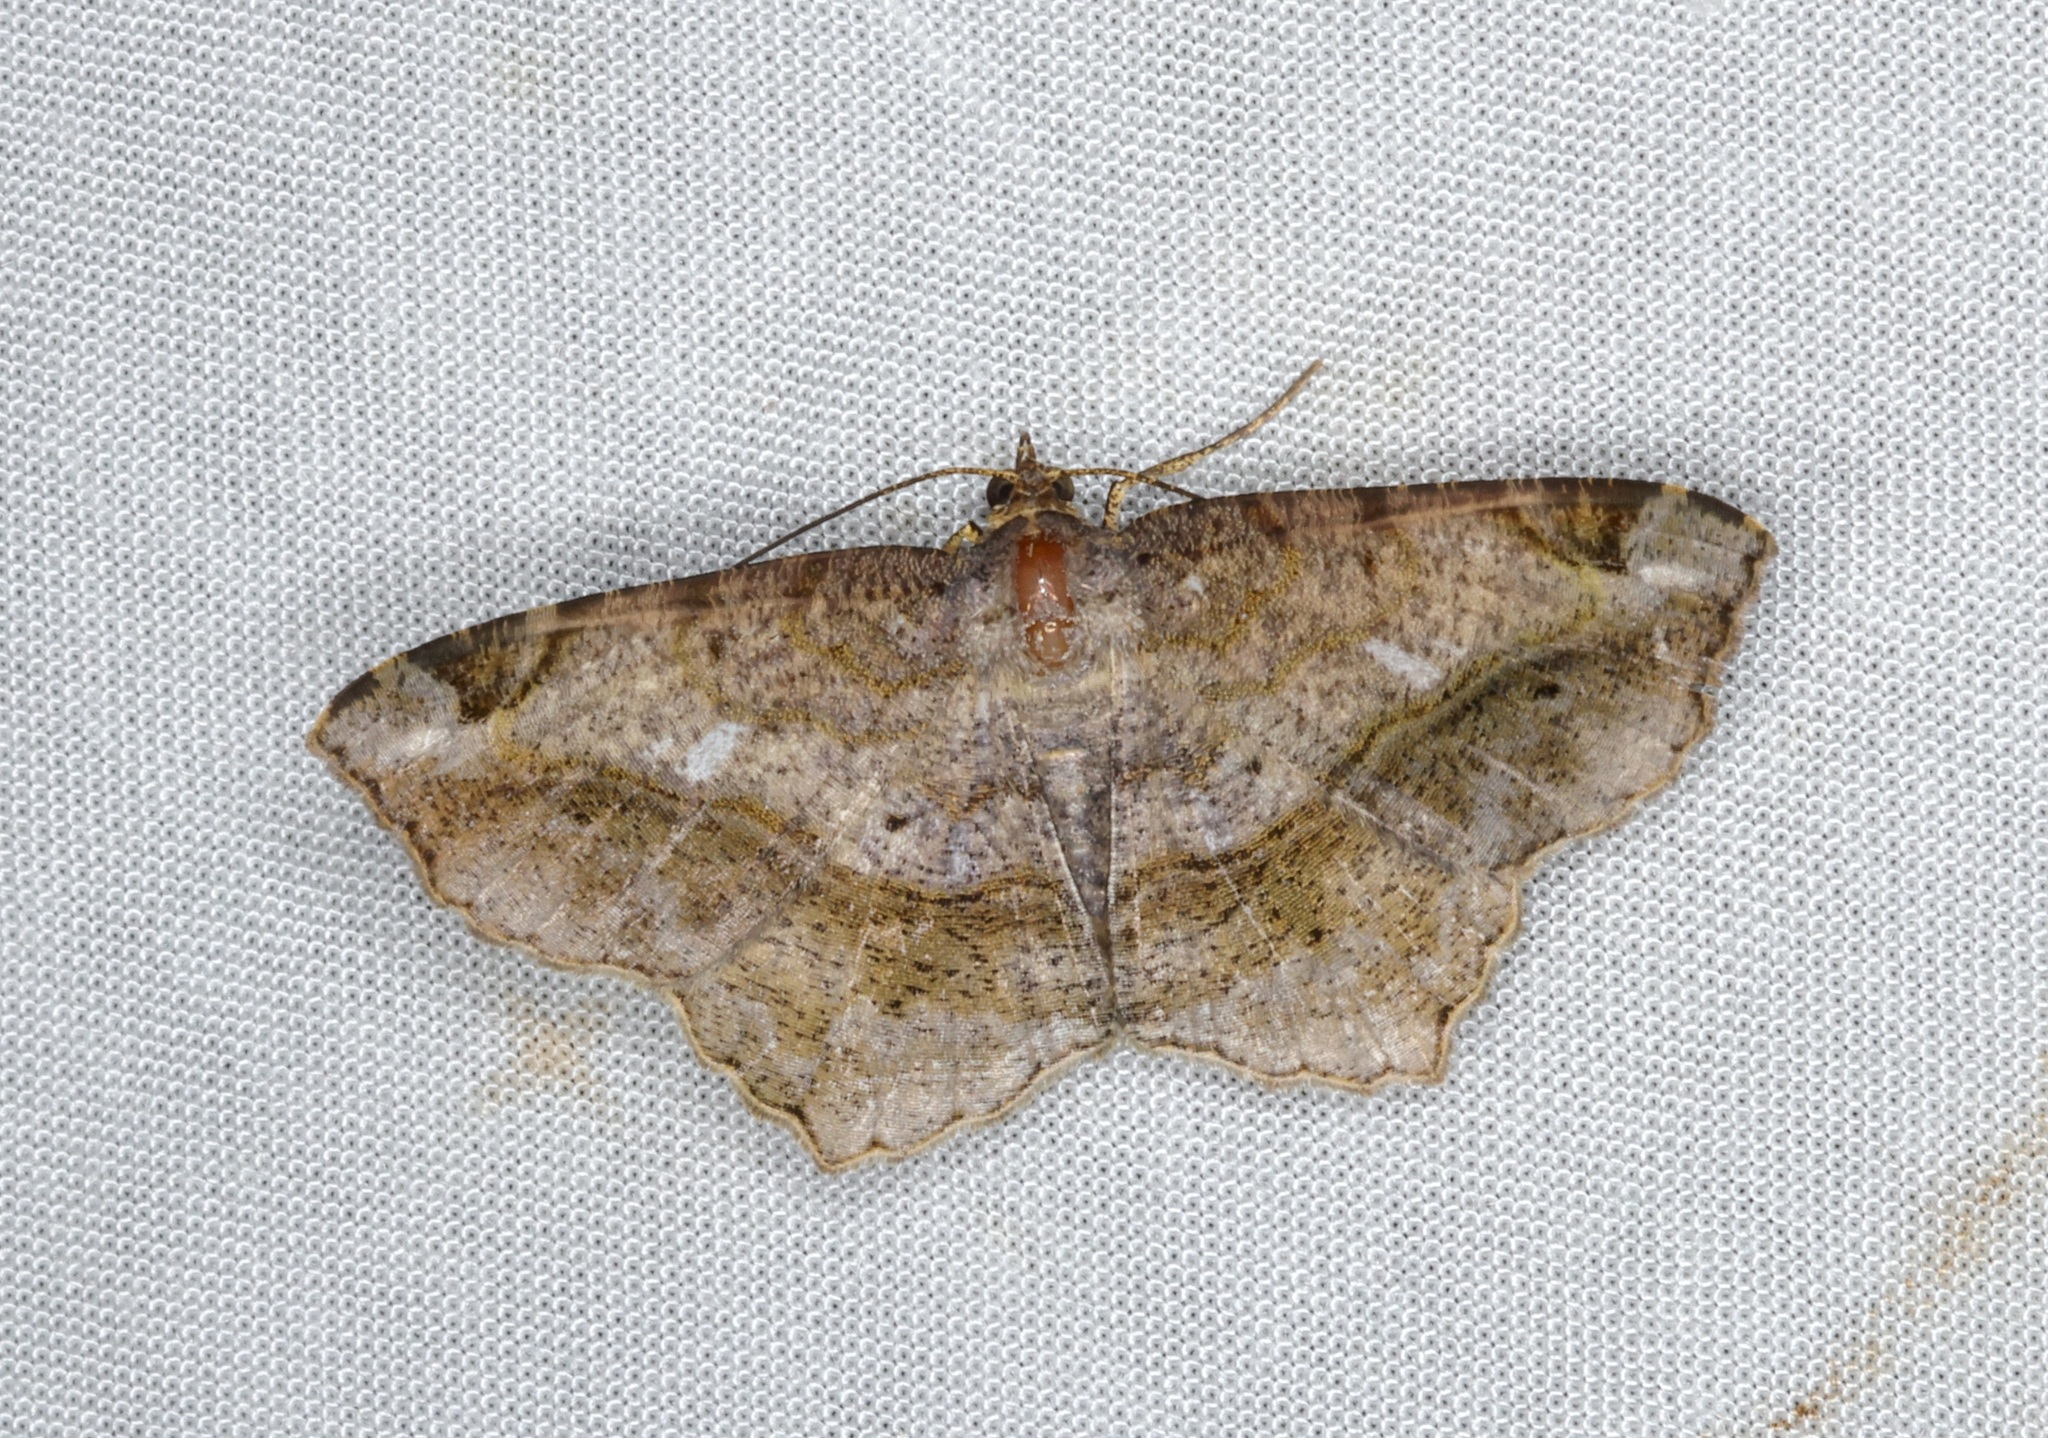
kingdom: Animalia
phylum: Arthropoda
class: Insecta
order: Lepidoptera
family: Geometridae
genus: Chiasmia
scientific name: Chiasmia cymatodes
